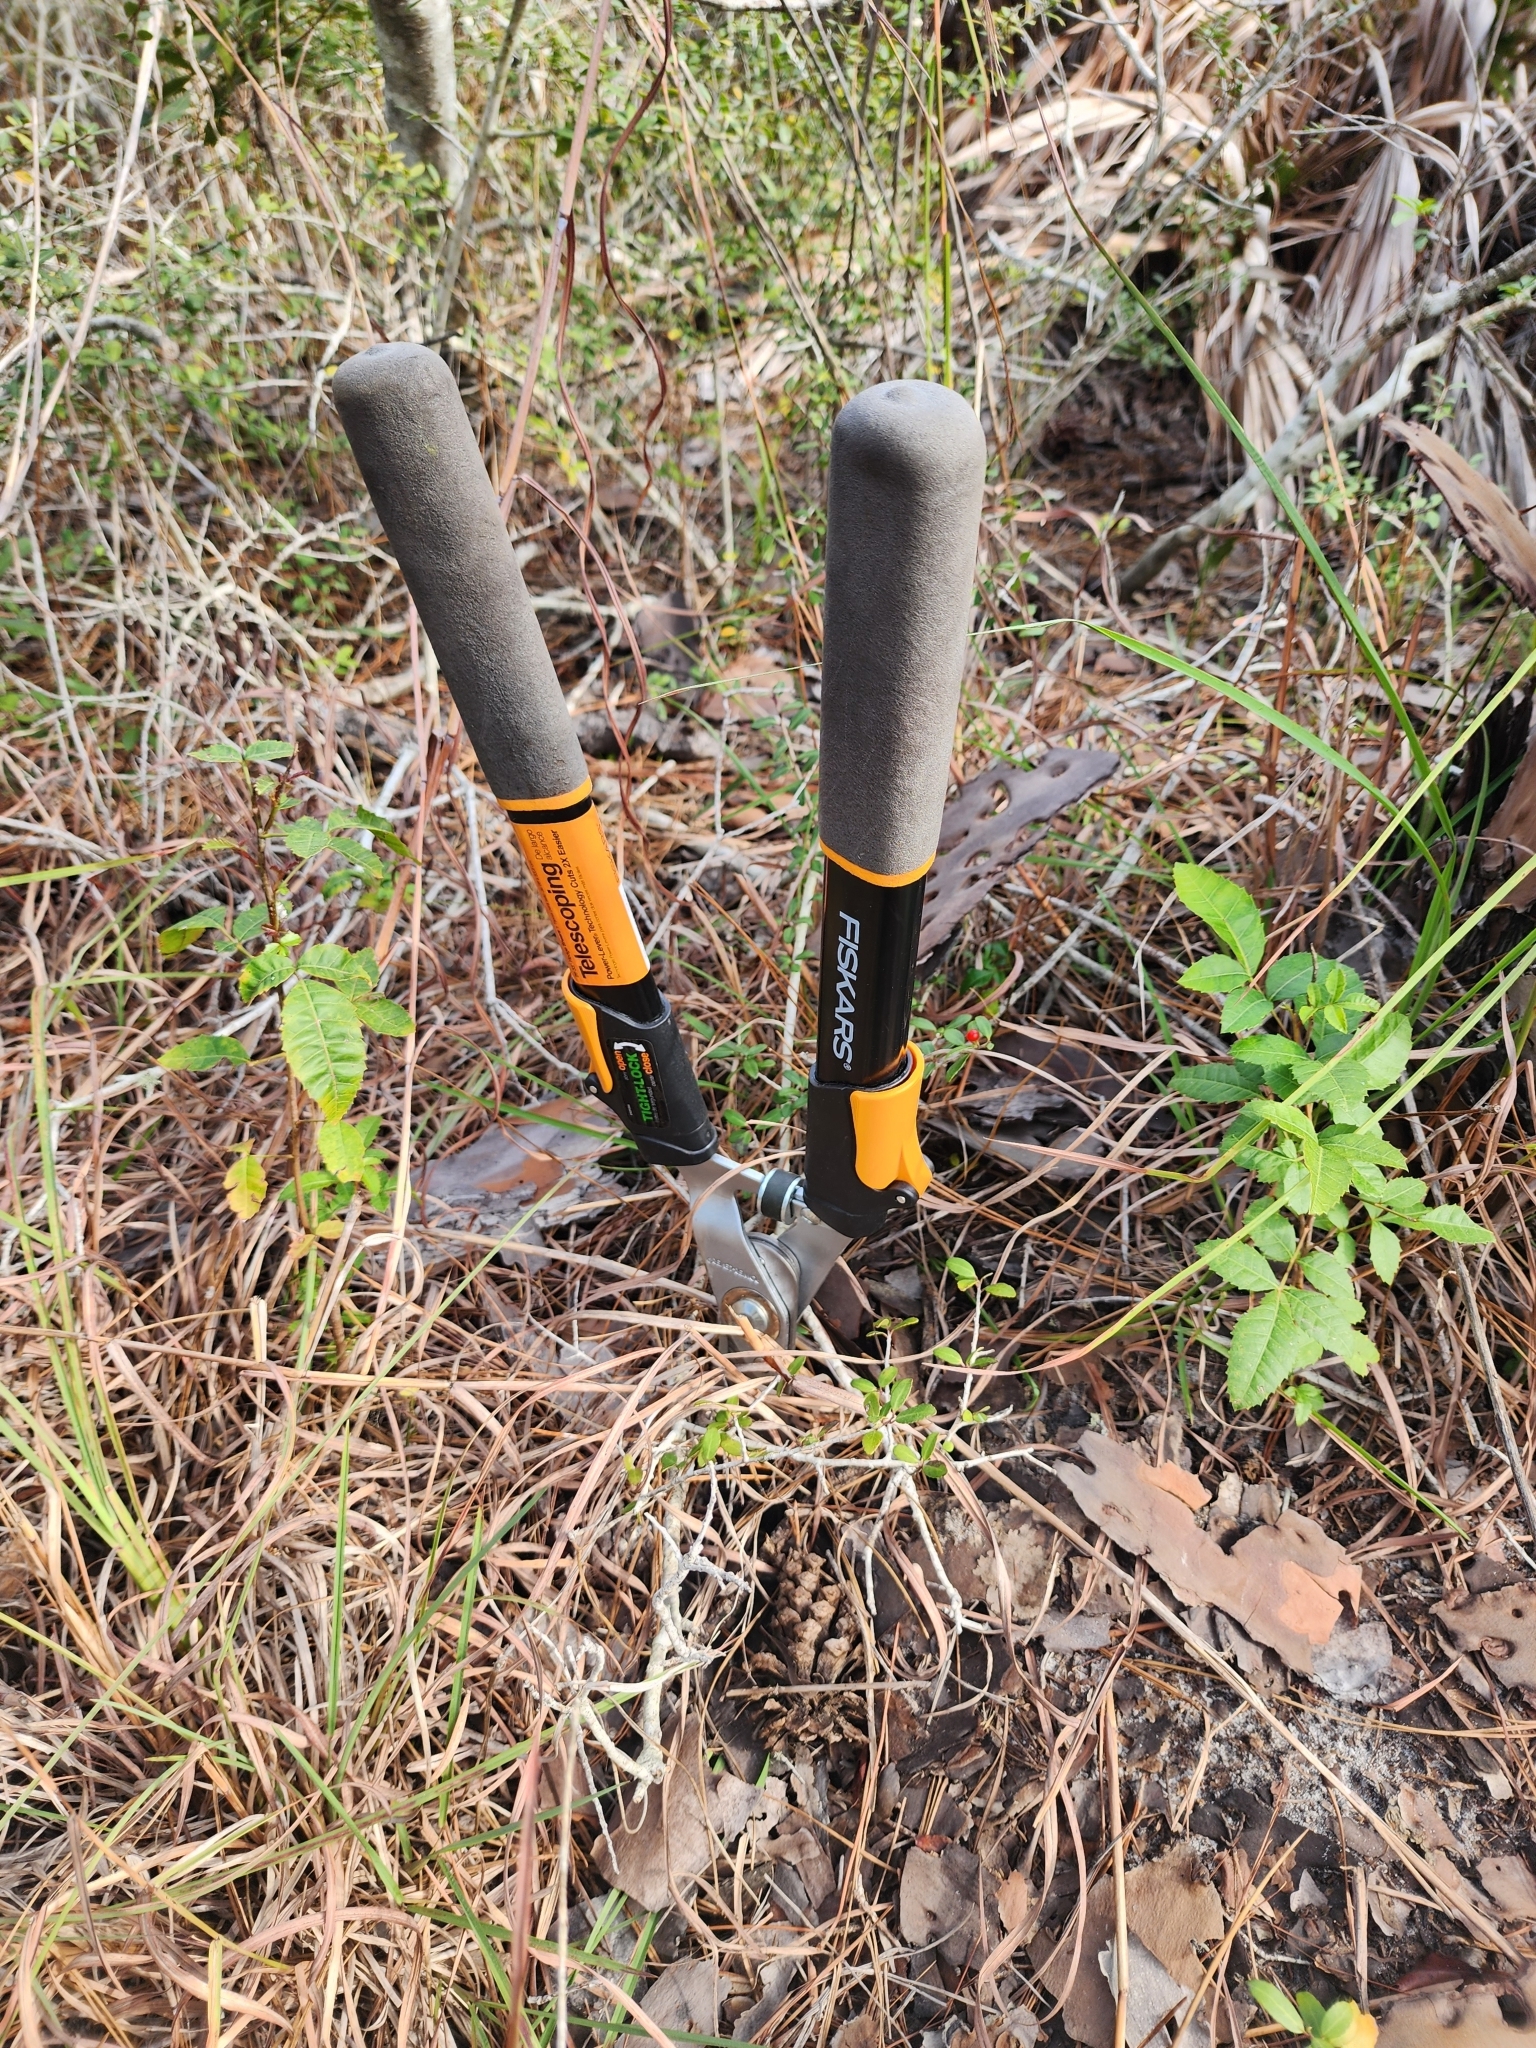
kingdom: Plantae
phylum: Tracheophyta
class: Magnoliopsida
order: Sapindales
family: Anacardiaceae
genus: Schinus
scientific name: Schinus terebinthifolia
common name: Brazilian peppertree
